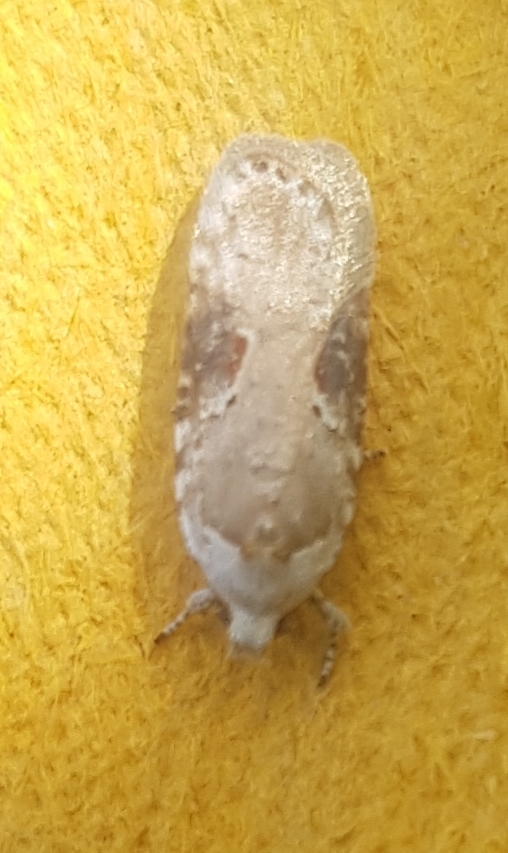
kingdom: Animalia
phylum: Arthropoda
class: Insecta
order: Lepidoptera
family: Depressariidae
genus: Agonopterix
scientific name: Agonopterix alstroemeriana
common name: Moth
